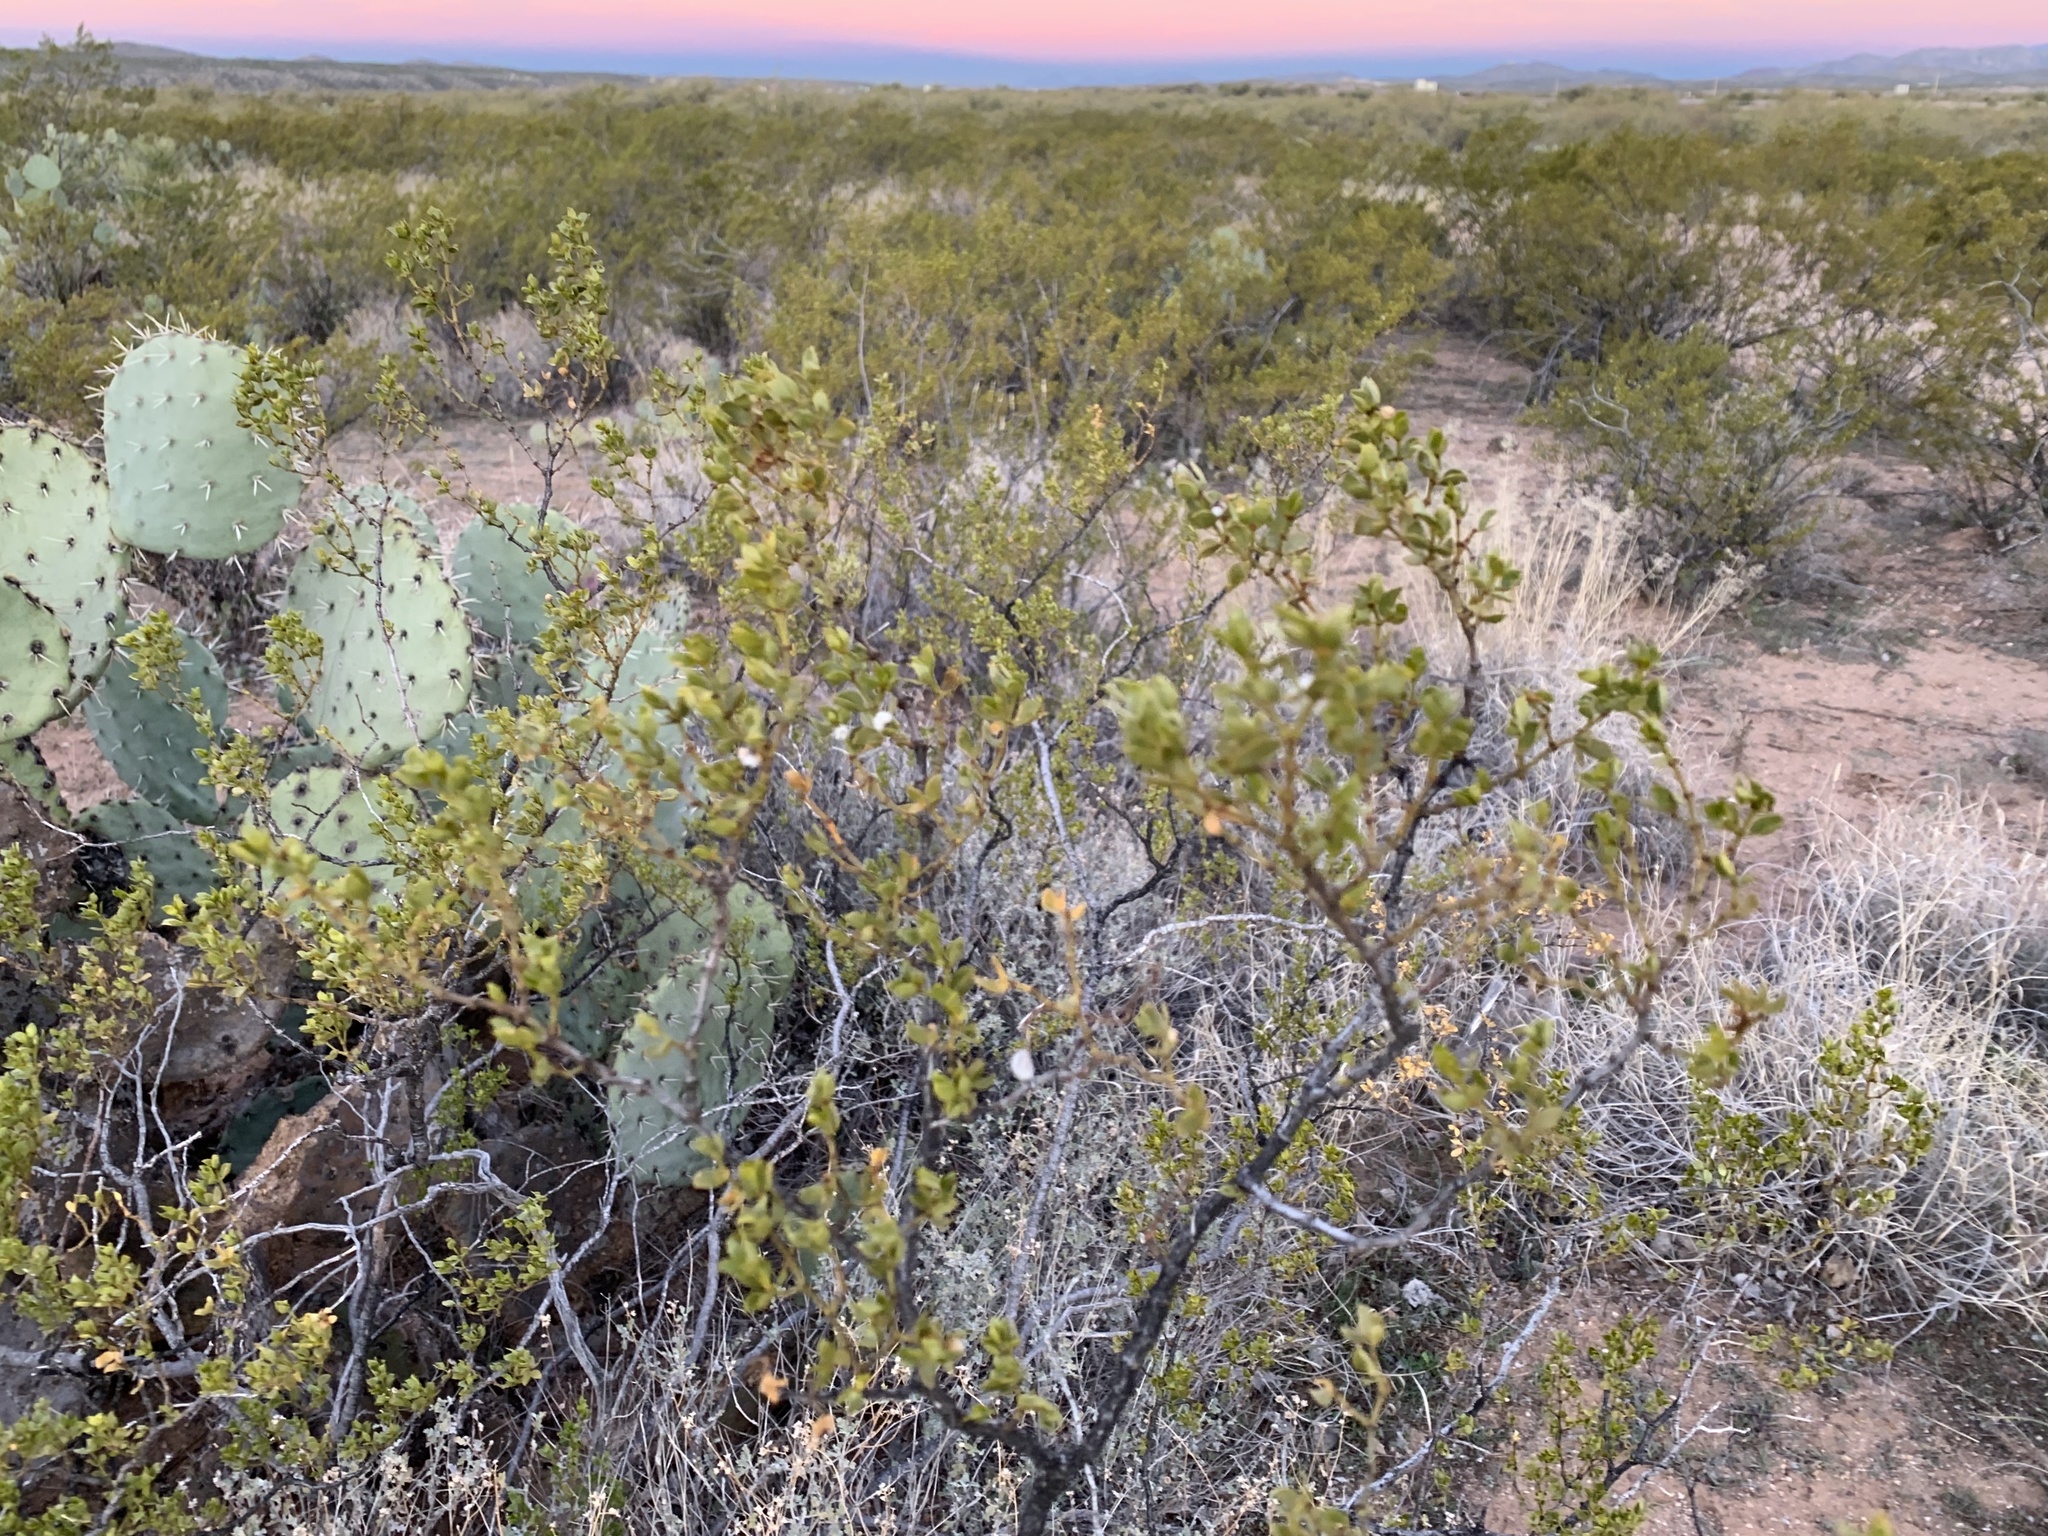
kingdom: Plantae
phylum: Tracheophyta
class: Magnoliopsida
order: Zygophyllales
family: Zygophyllaceae
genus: Larrea
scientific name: Larrea tridentata
